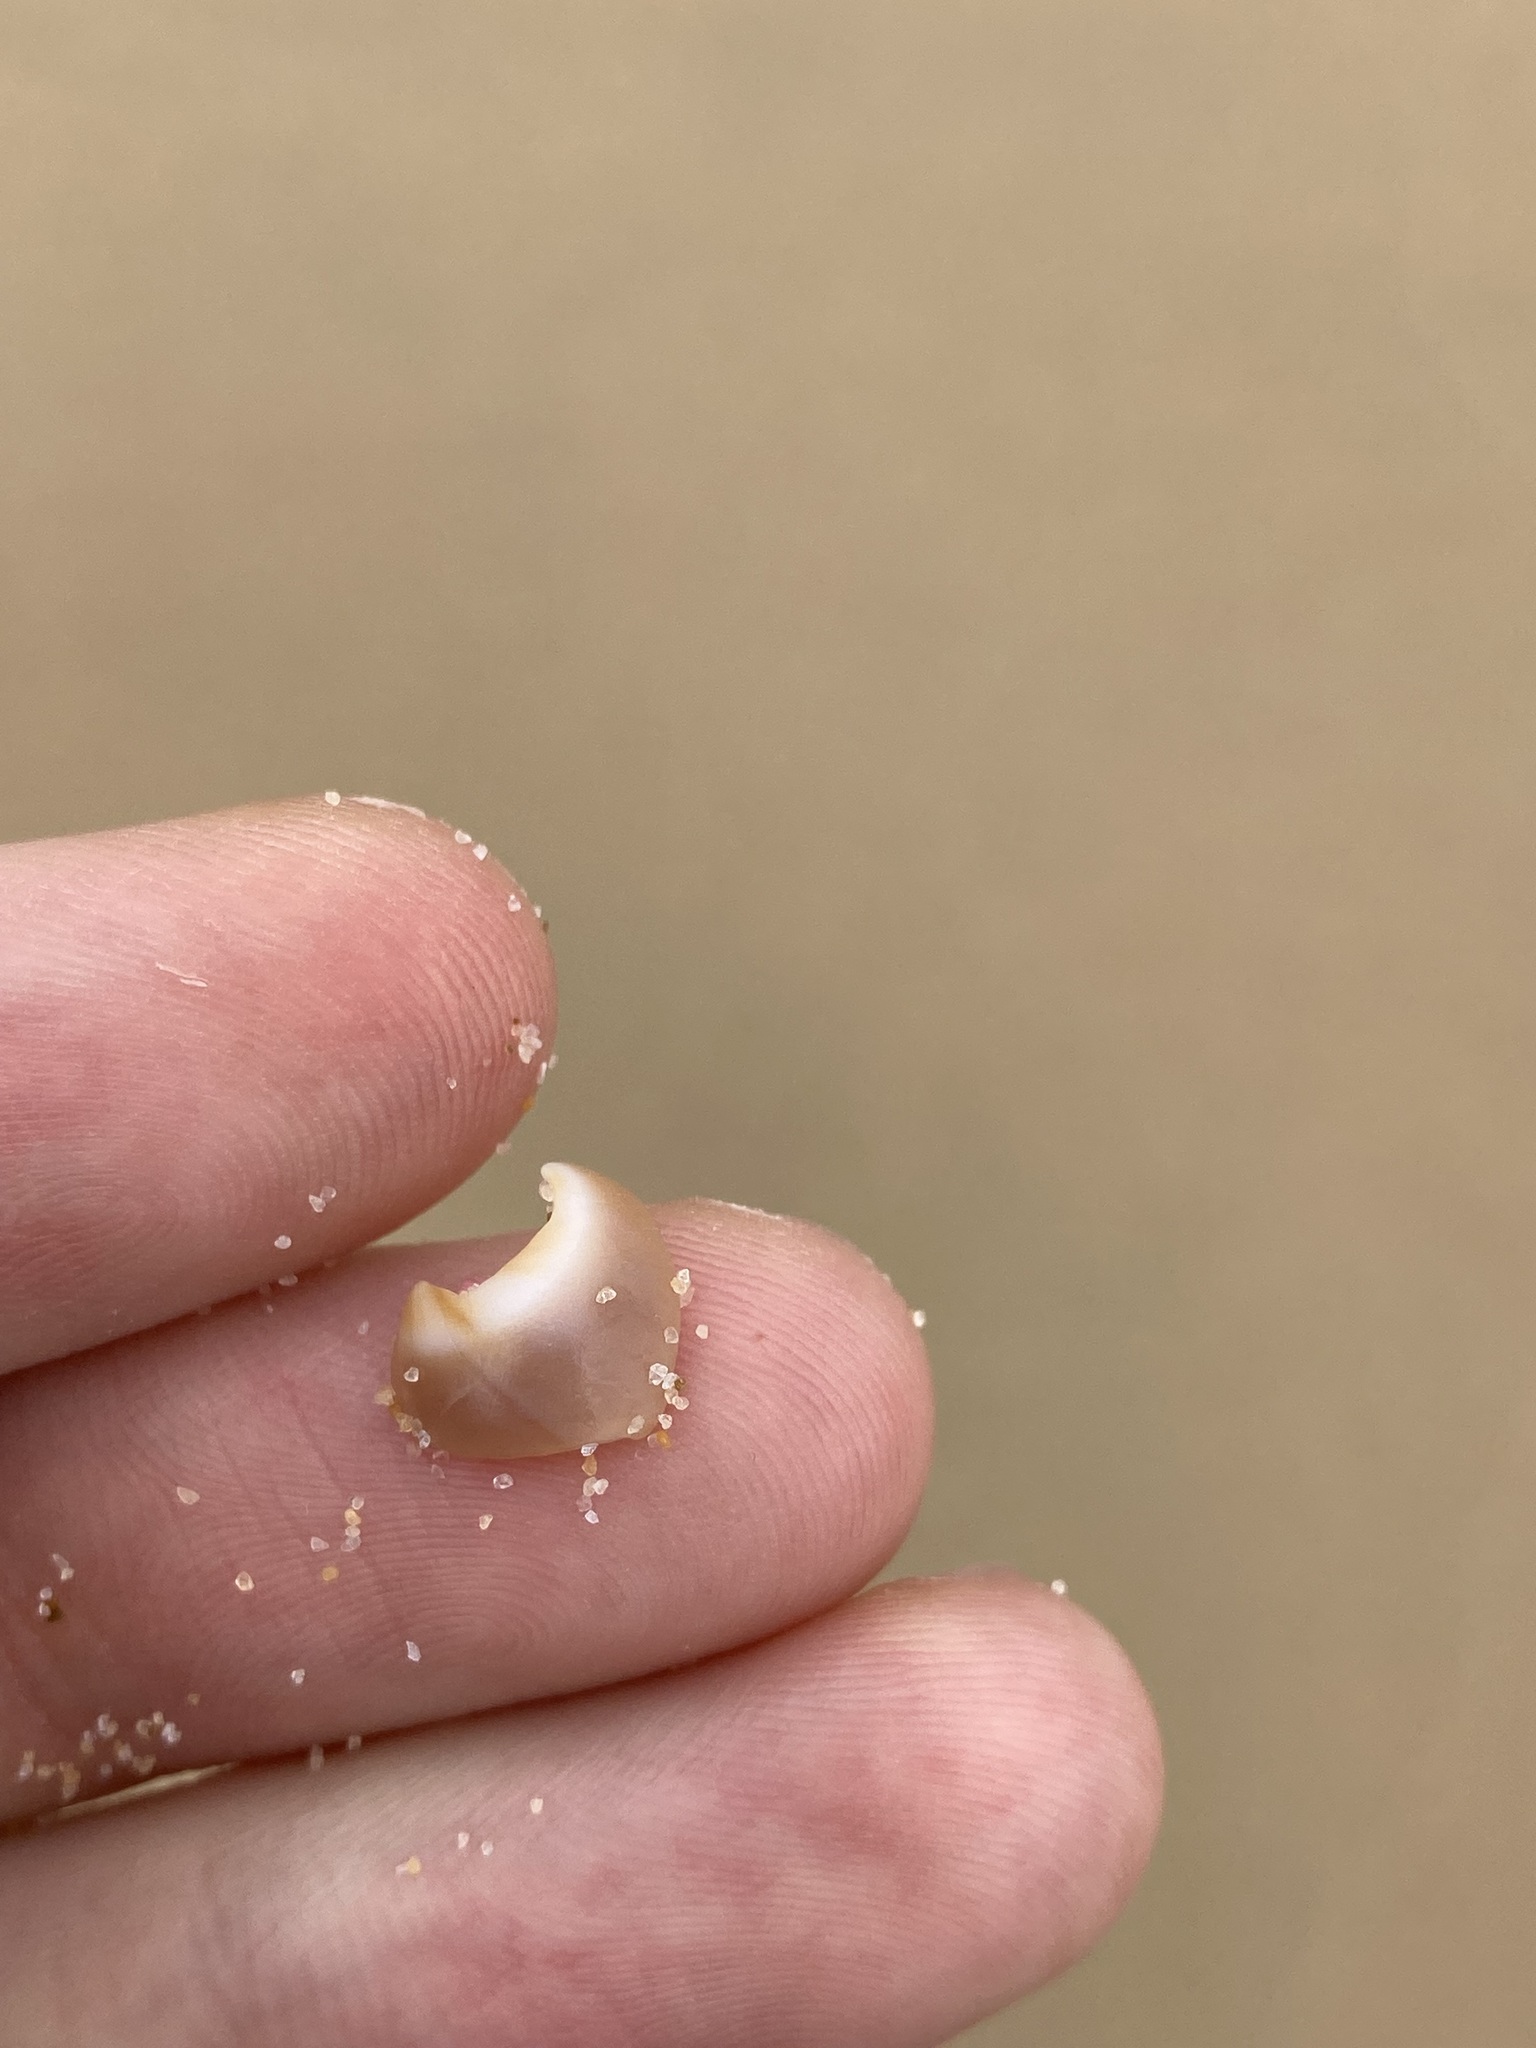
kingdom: Animalia
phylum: Mollusca
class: Gastropoda
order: Littorinimorpha
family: Naticidae
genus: Conuber
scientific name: Conuber conicum
